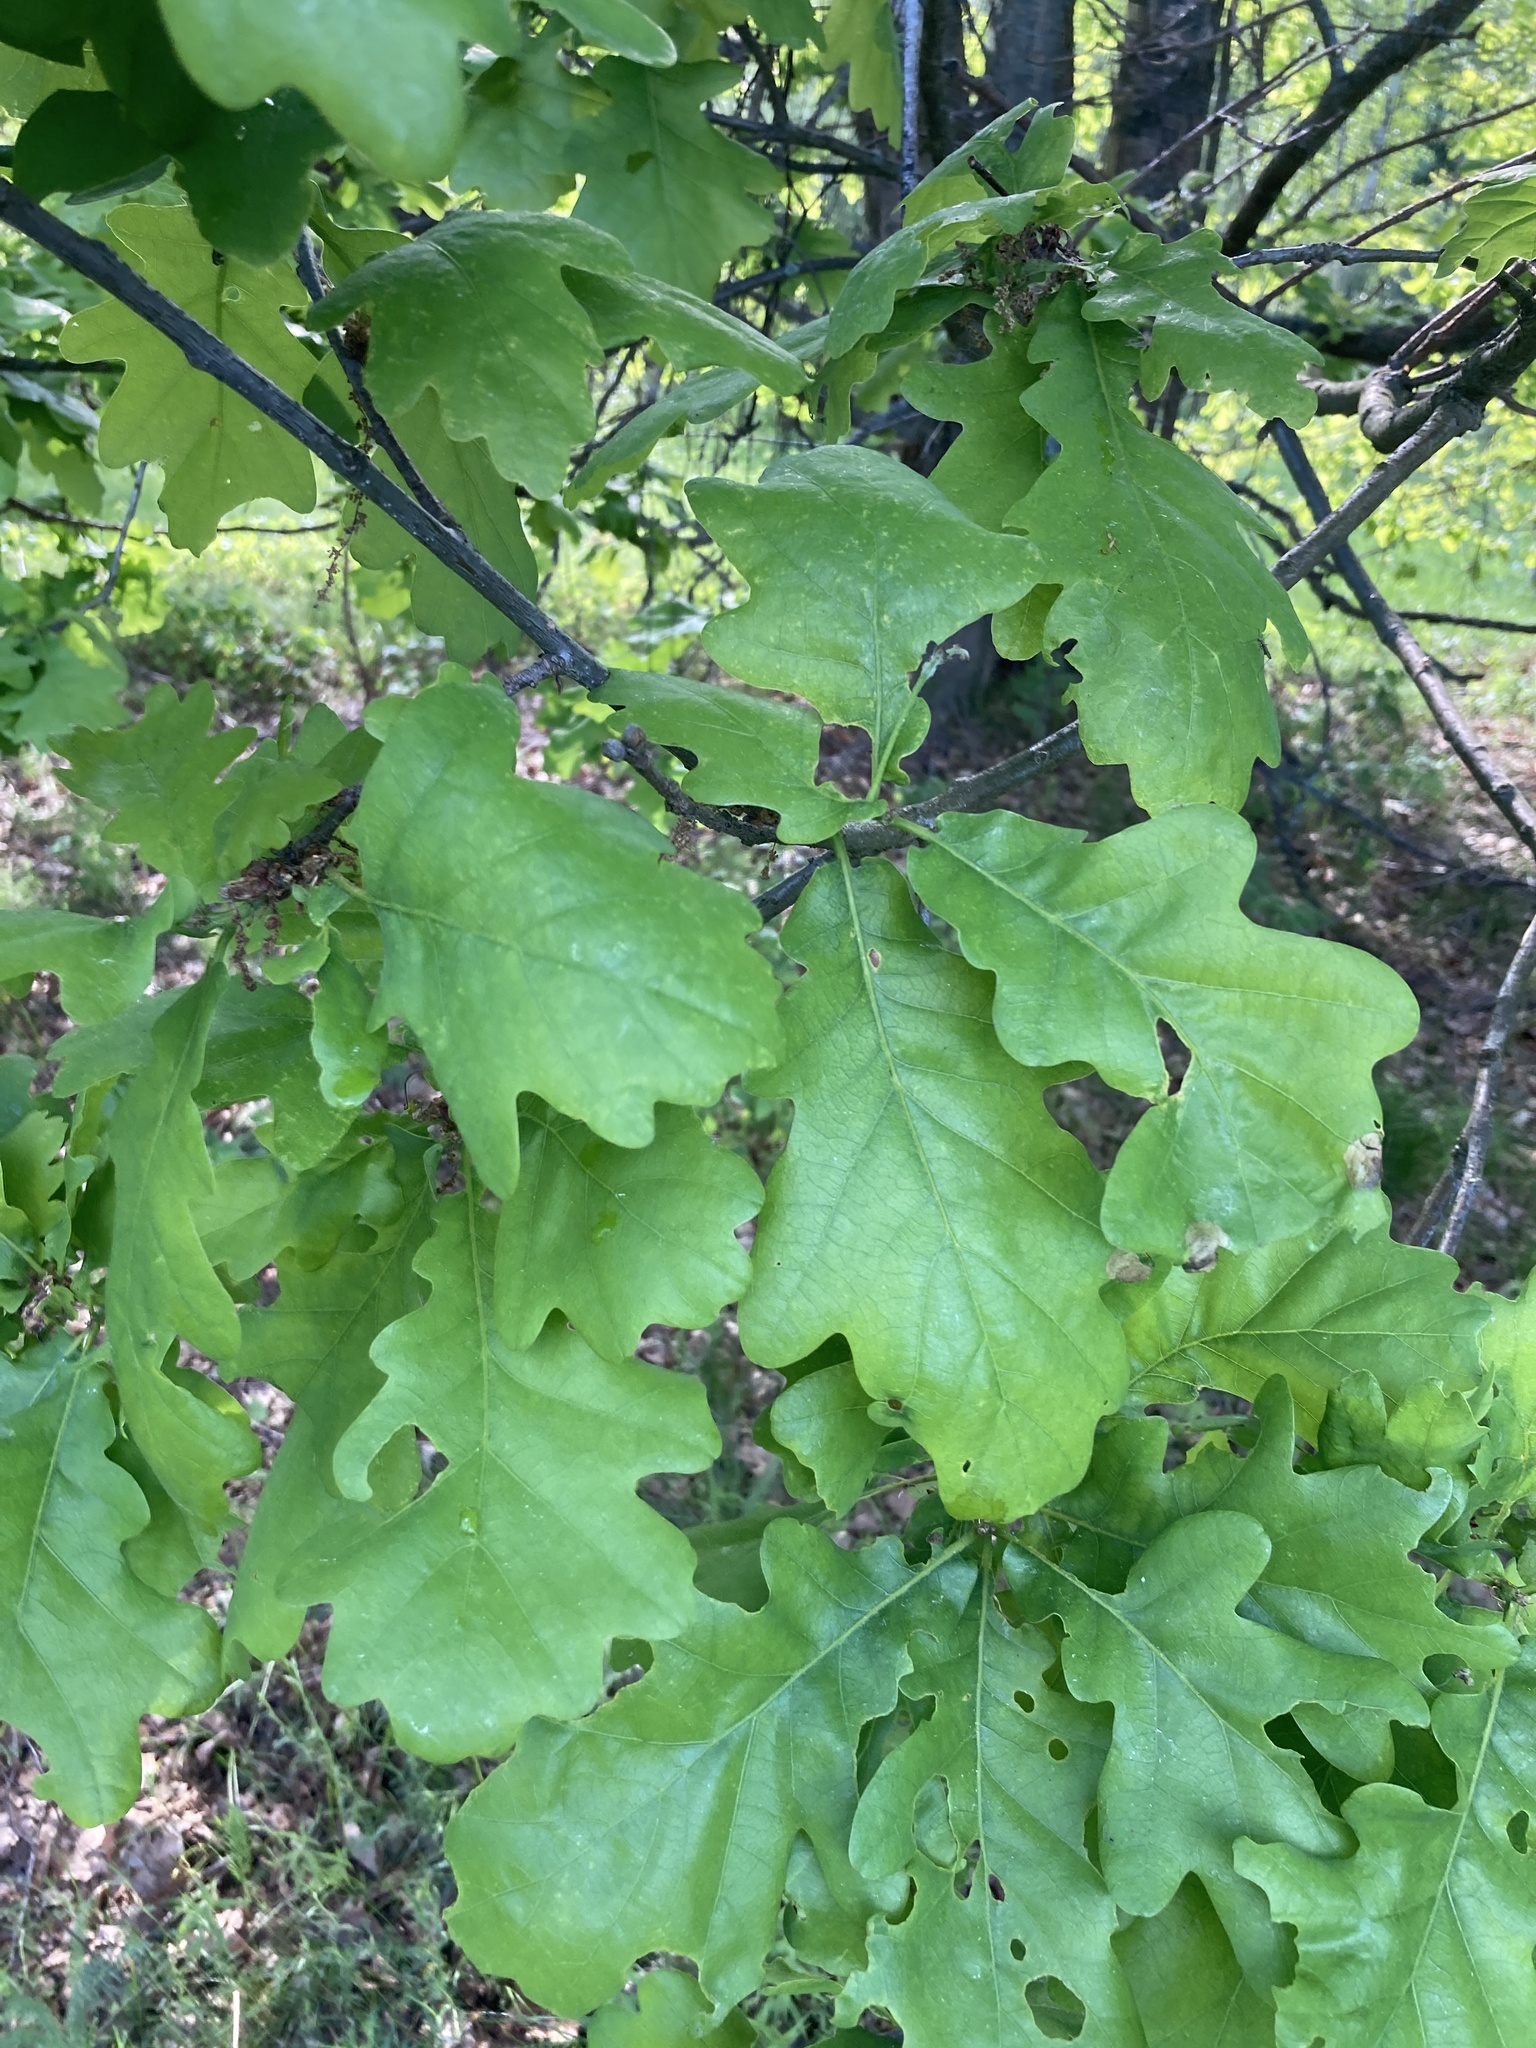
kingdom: Plantae
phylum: Tracheophyta
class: Magnoliopsida
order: Fagales
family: Fagaceae
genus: Quercus
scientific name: Quercus robur
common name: Pedunculate oak
